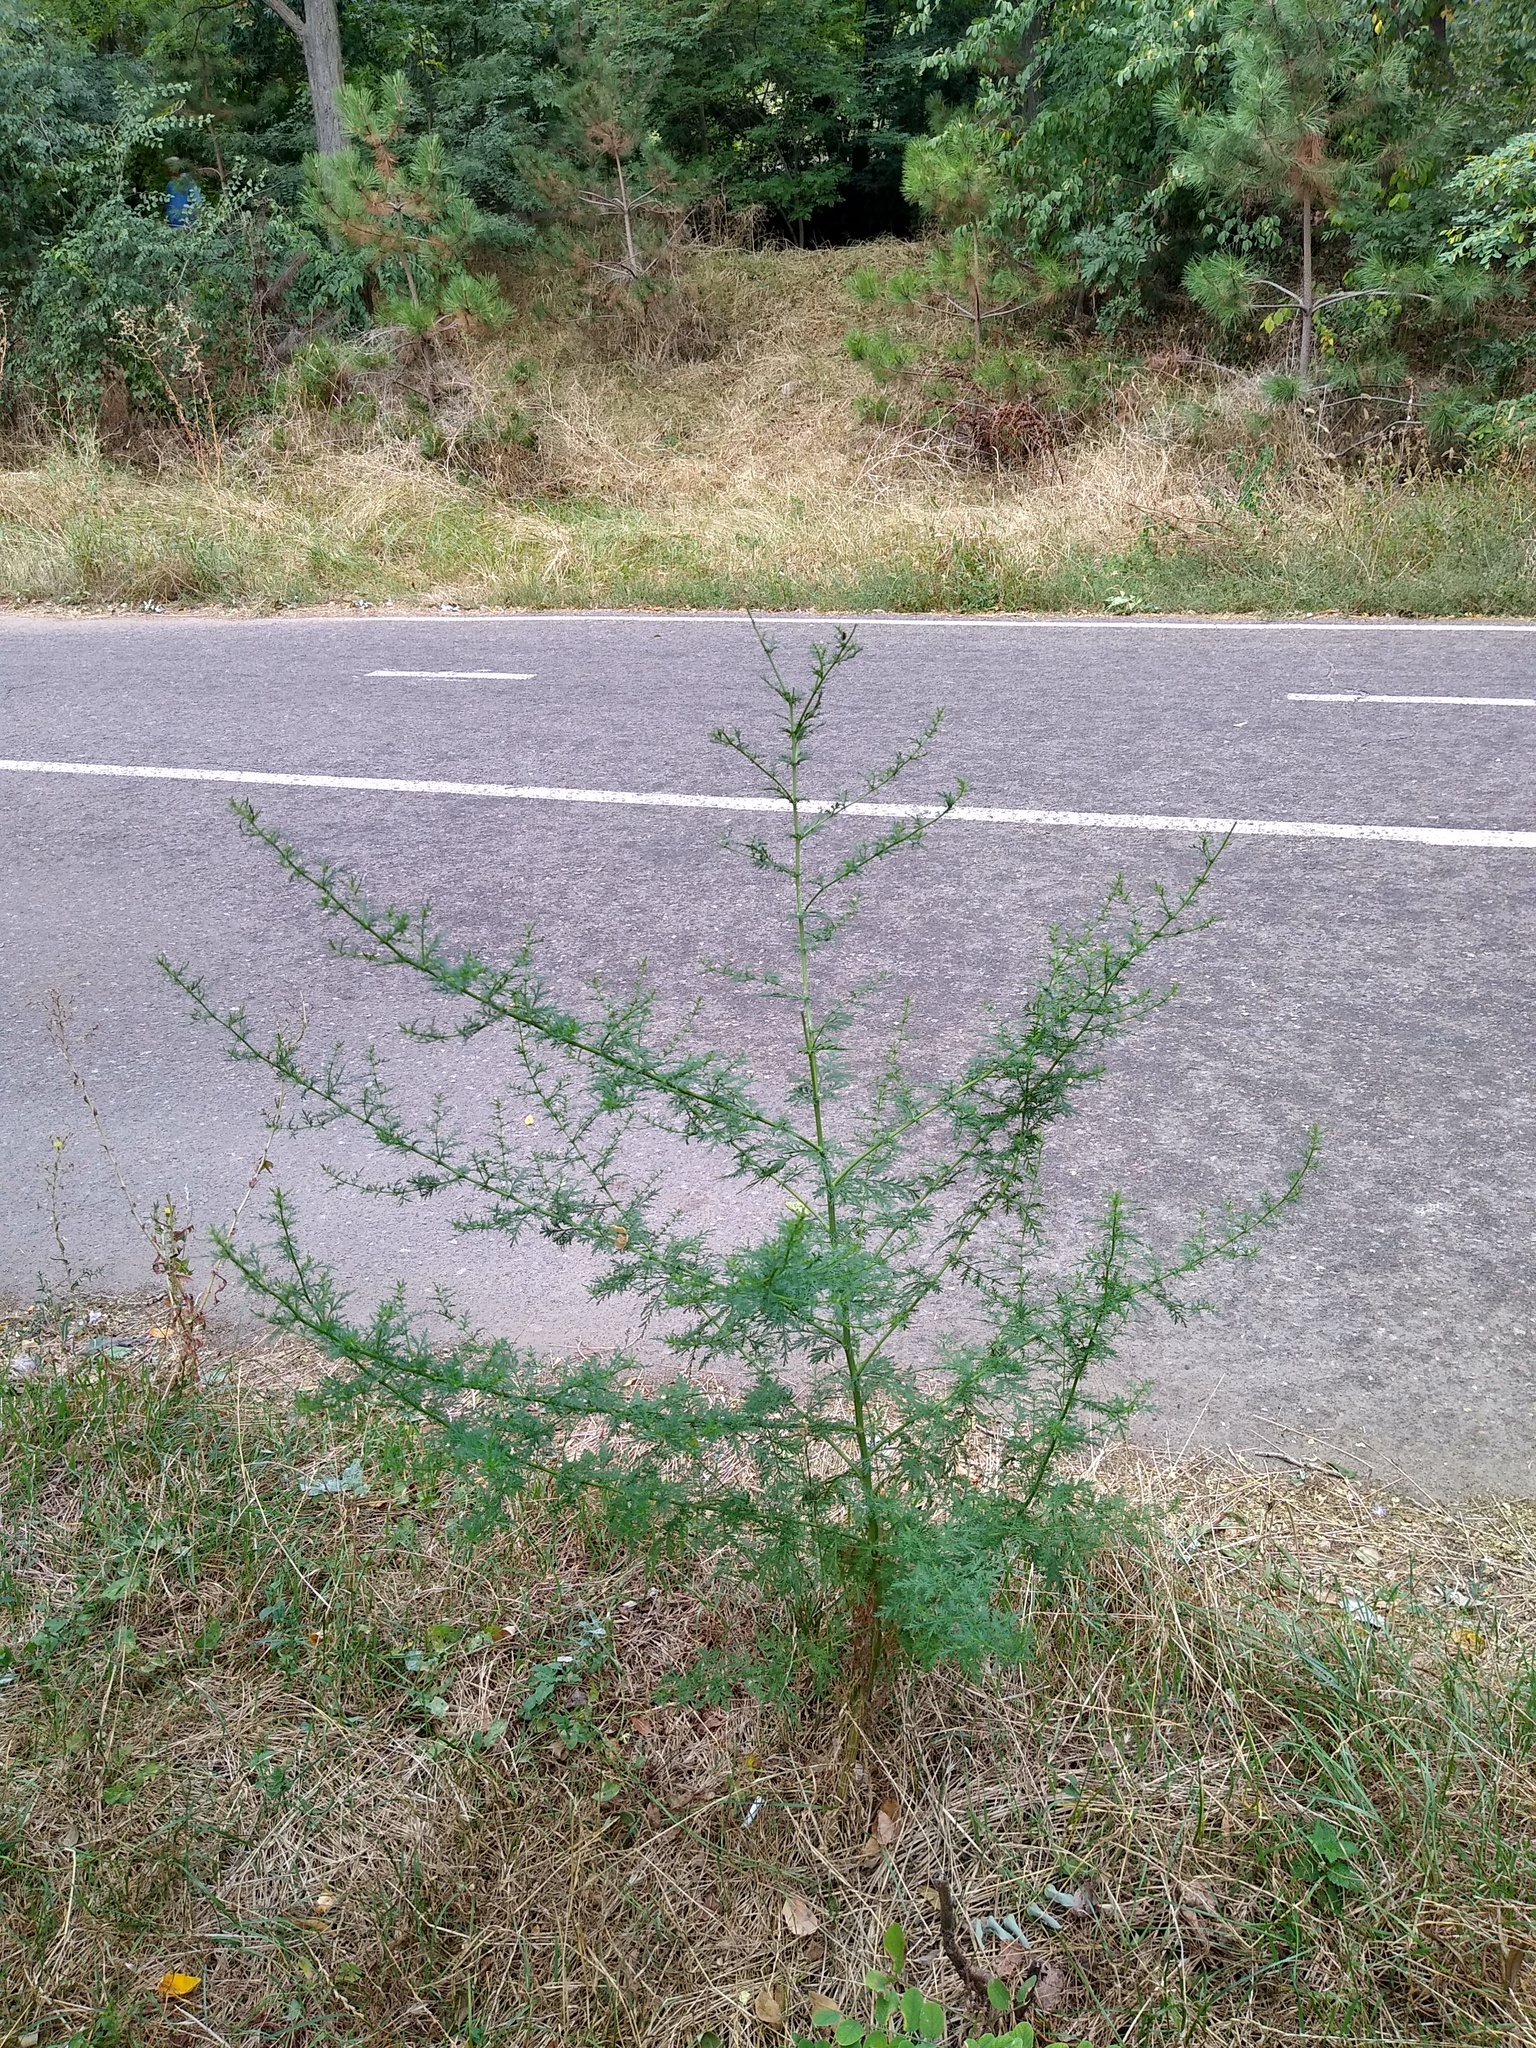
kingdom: Plantae
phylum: Tracheophyta
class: Magnoliopsida
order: Asterales
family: Asteraceae
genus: Artemisia
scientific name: Artemisia annua
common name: Sweet sagewort
